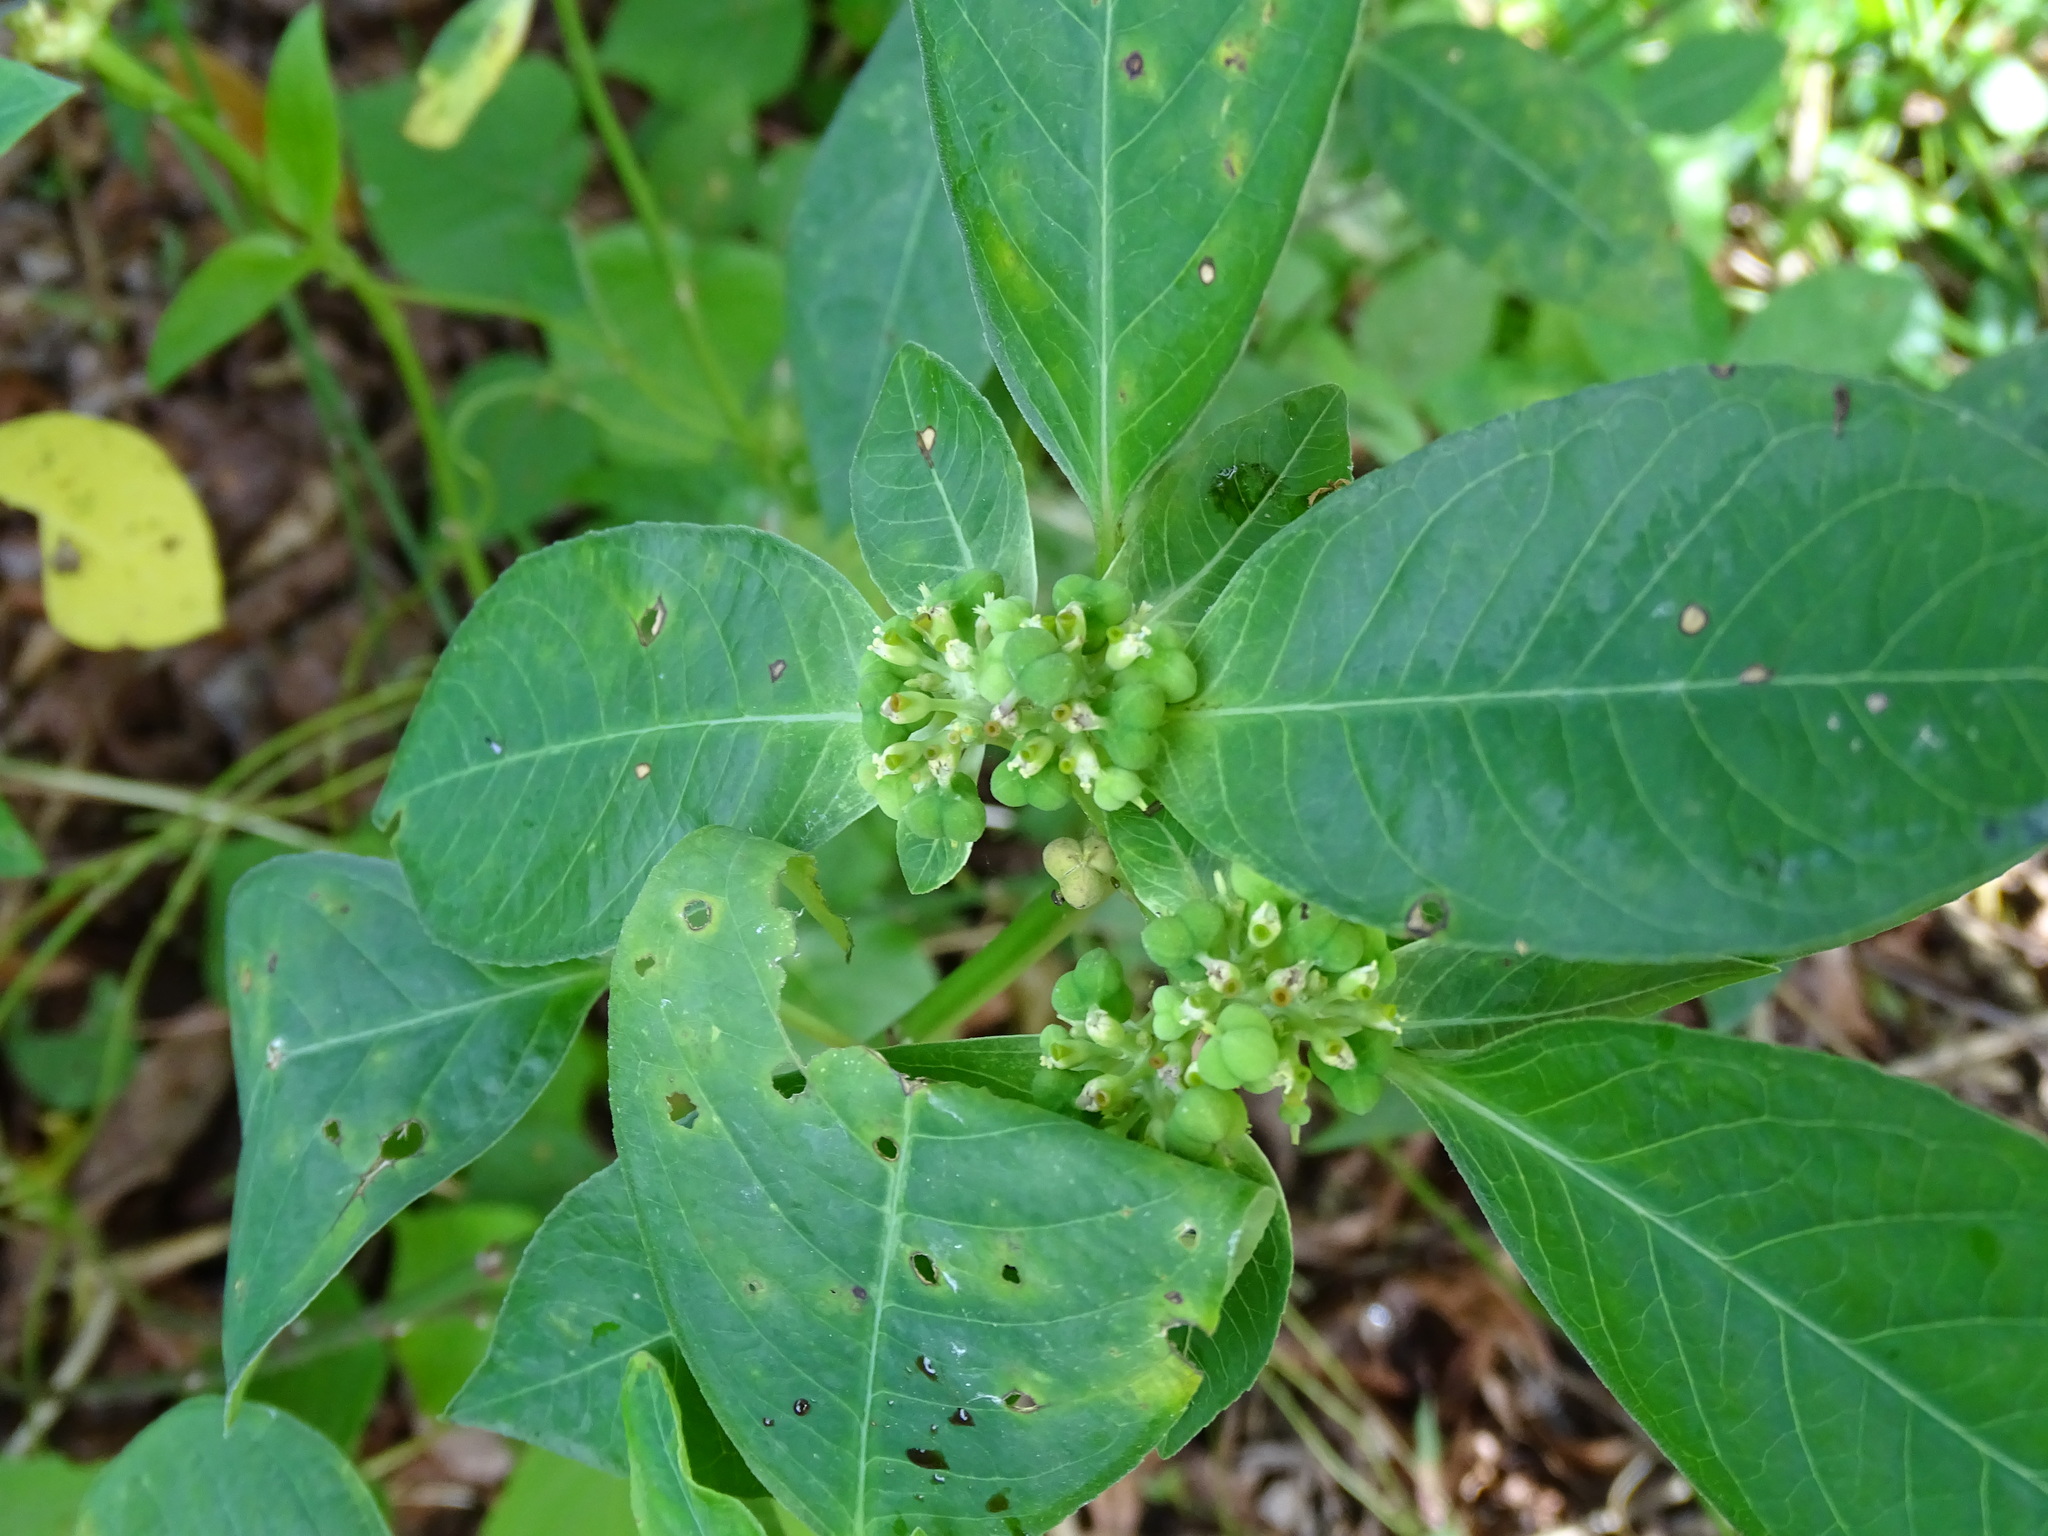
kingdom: Plantae
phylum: Tracheophyta
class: Magnoliopsida
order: Malpighiales
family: Euphorbiaceae
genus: Euphorbia
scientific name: Euphorbia heterophylla
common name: Mexican fireplant
